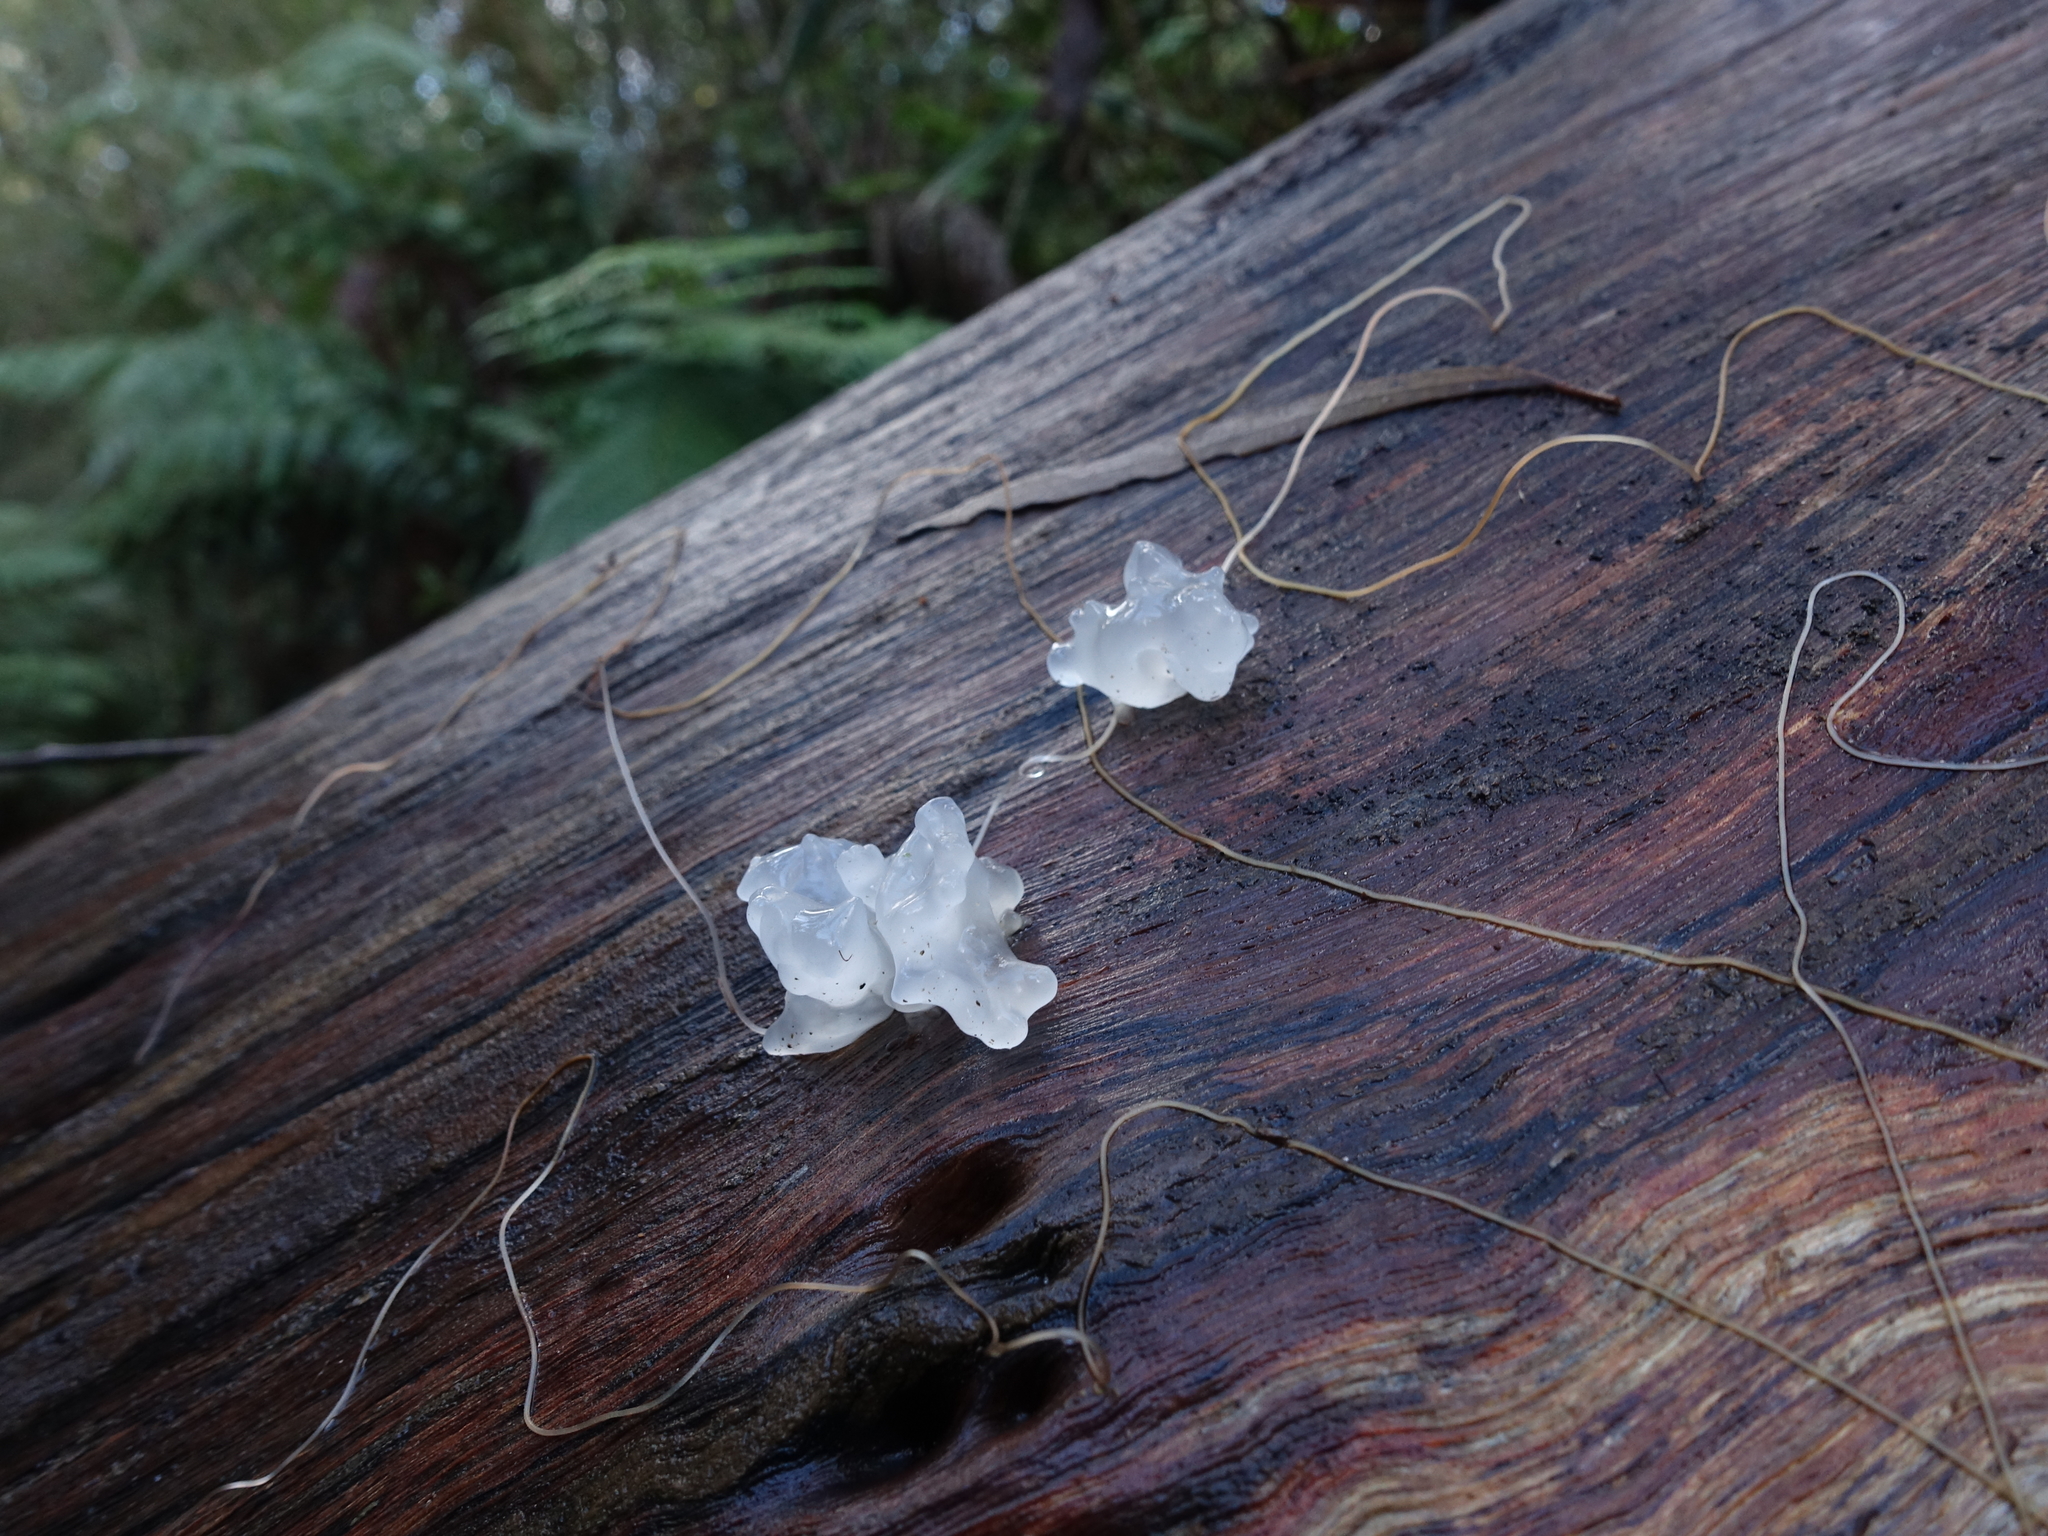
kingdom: Fungi
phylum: Basidiomycota
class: Tremellomycetes
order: Tremellales
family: Tremellaceae
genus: Tremella
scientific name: Tremella fuciformis
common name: Snow fungus
